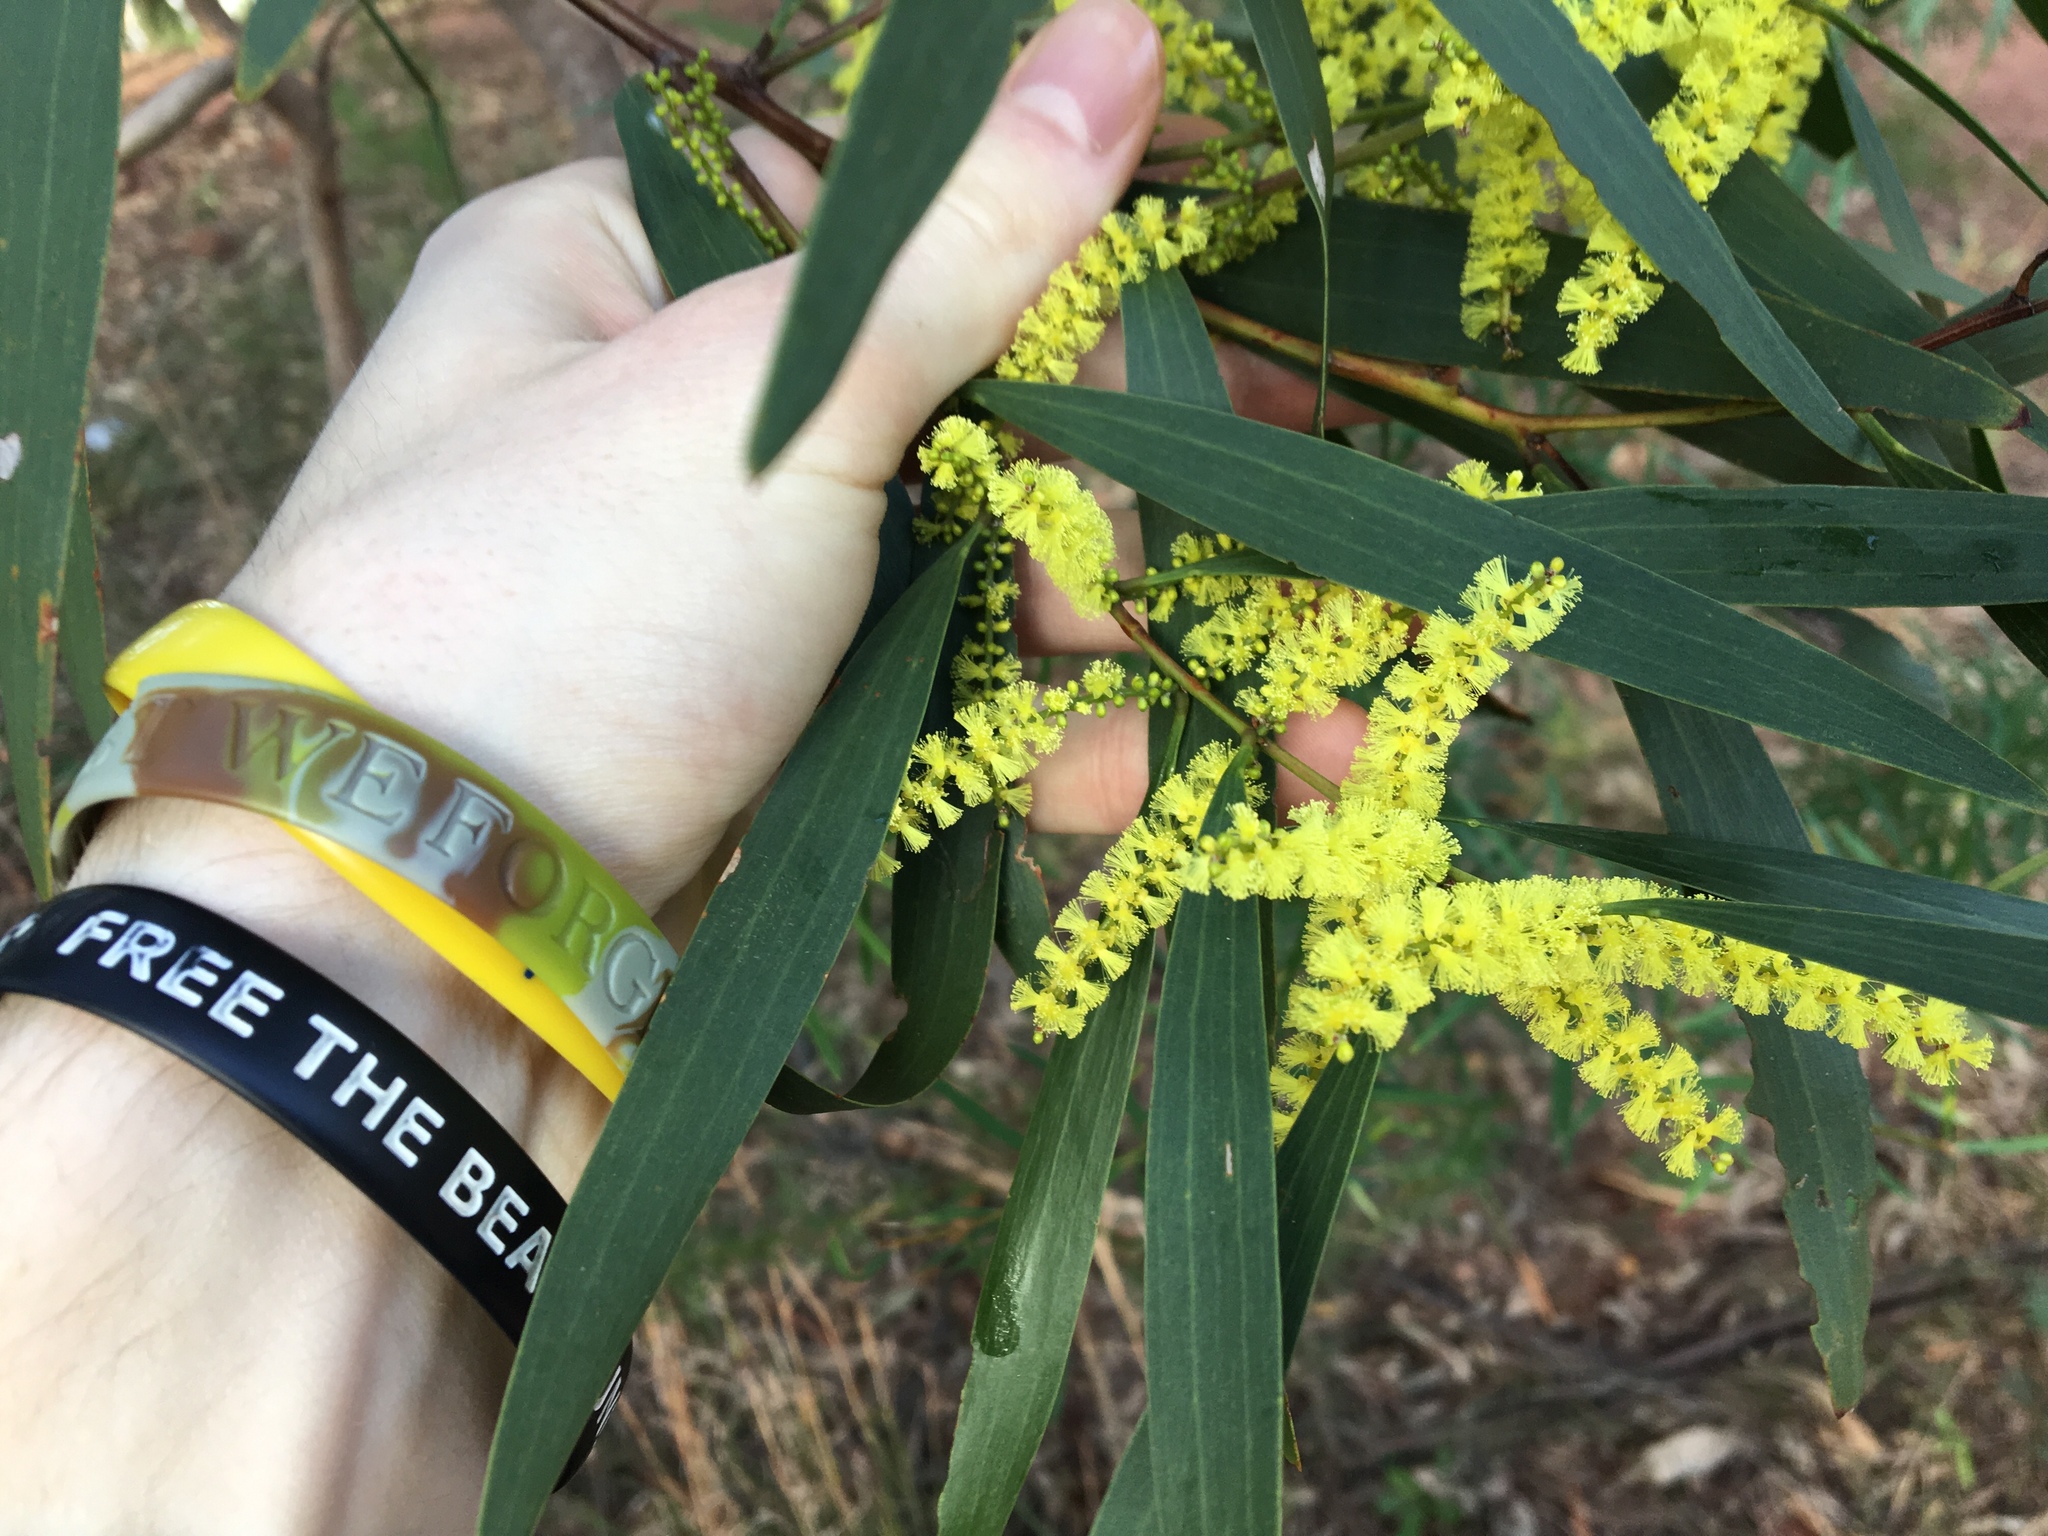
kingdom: Plantae
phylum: Tracheophyta
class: Magnoliopsida
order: Fabales
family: Fabaceae
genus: Acacia
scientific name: Acacia longifolia
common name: Sydney golden wattle
